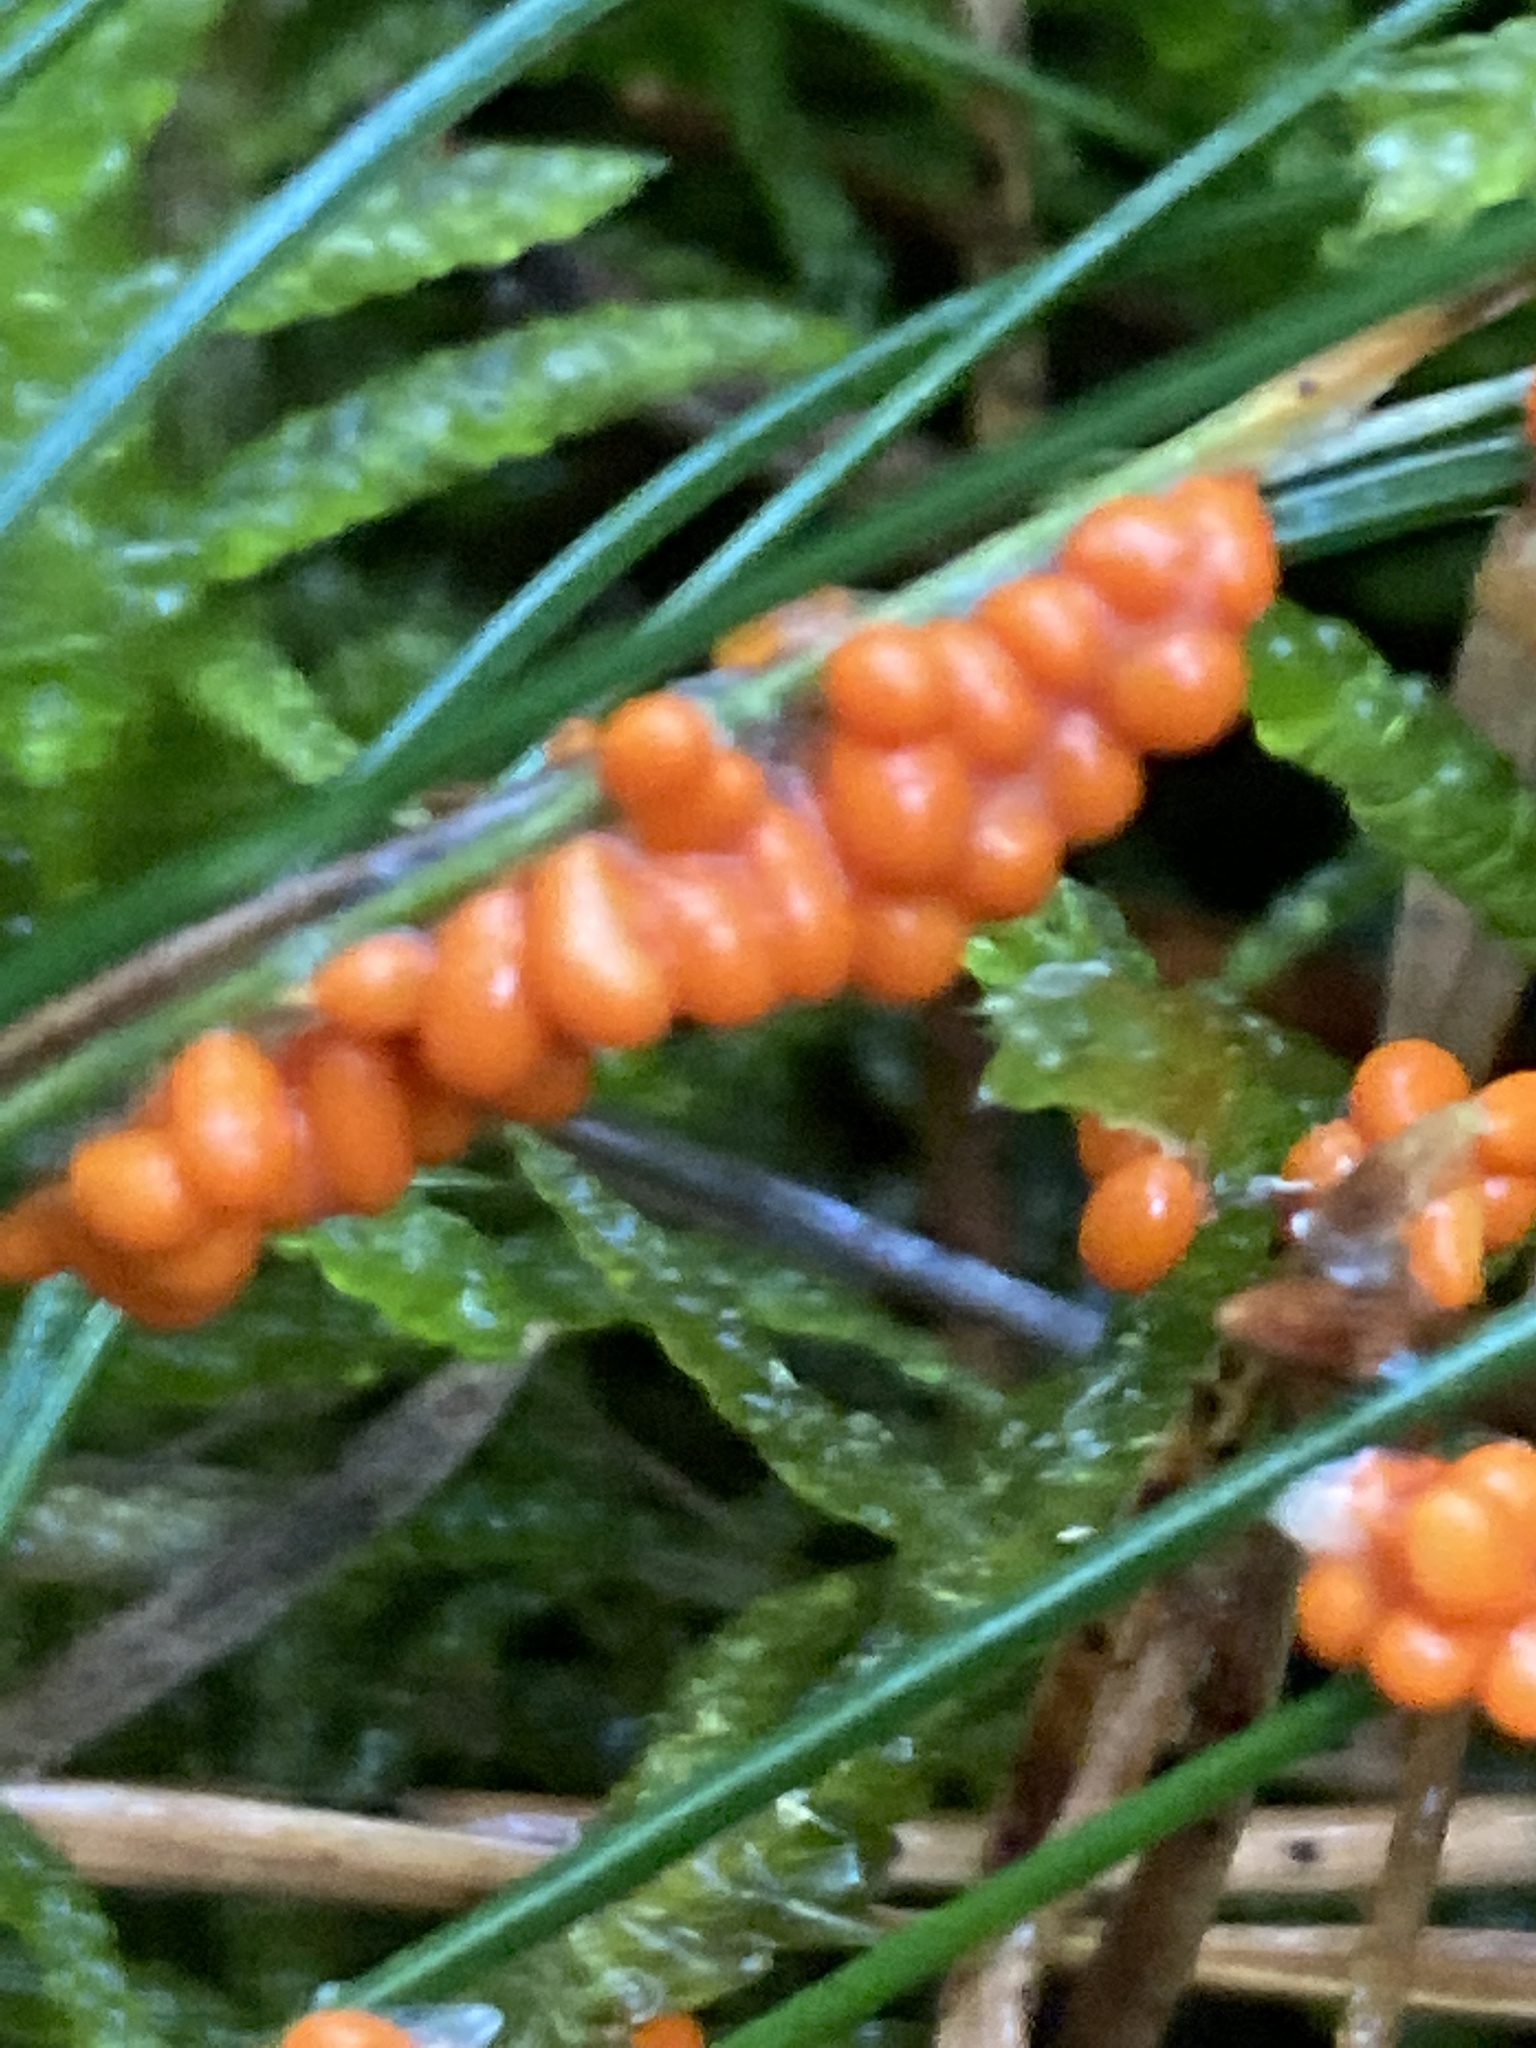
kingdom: Protozoa
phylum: Mycetozoa
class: Myxomycetes
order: Physarales
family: Physaraceae
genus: Leocarpus
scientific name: Leocarpus fragilis
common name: Insect-egg slime
